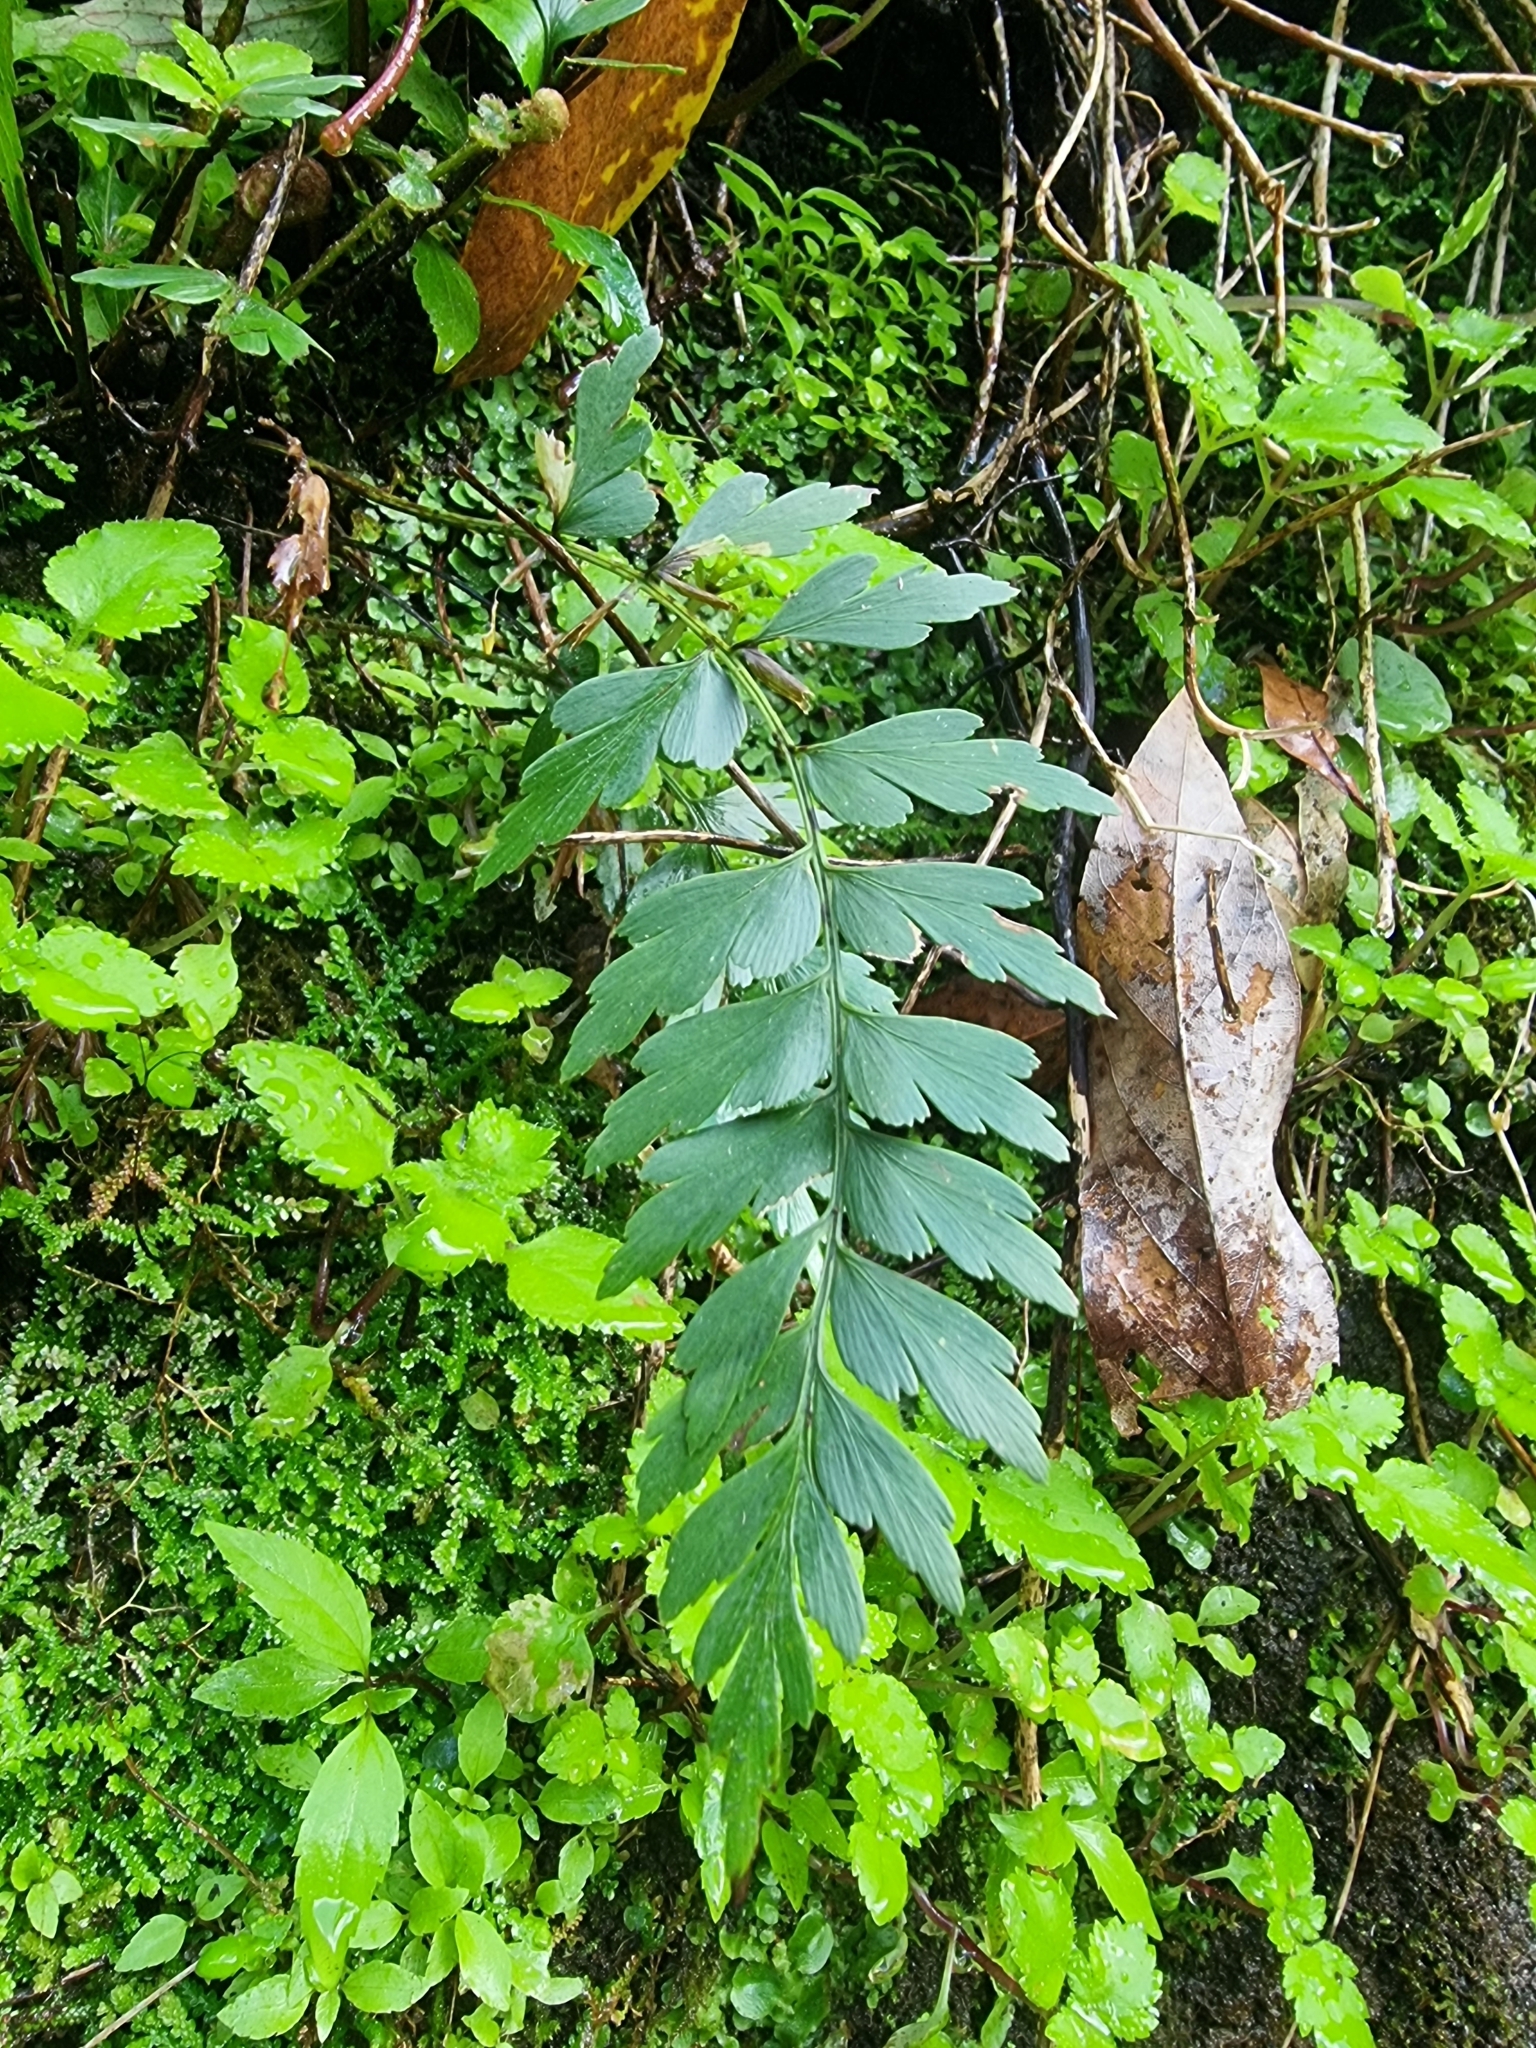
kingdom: Plantae
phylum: Tracheophyta
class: Polypodiopsida
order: Polypodiales
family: Aspleniaceae
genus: Asplenium
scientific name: Asplenium braithwaitei
